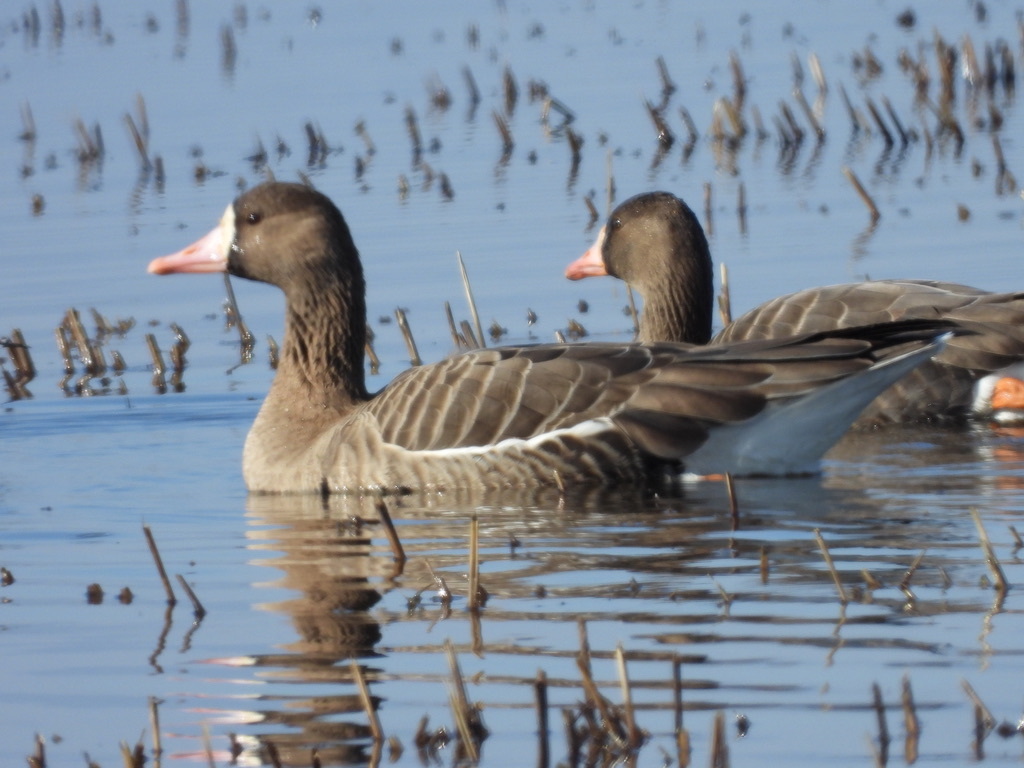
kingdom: Animalia
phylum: Chordata
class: Aves
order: Anseriformes
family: Anatidae
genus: Anser
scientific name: Anser albifrons
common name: Greater white-fronted goose
